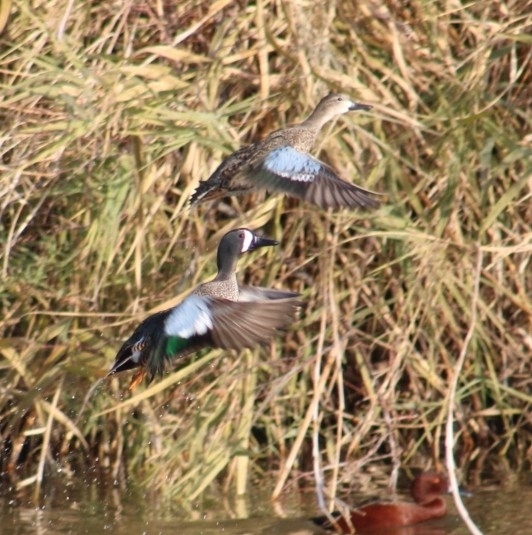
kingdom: Animalia
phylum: Chordata
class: Aves
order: Anseriformes
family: Anatidae
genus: Spatula
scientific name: Spatula discors
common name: Blue-winged teal
